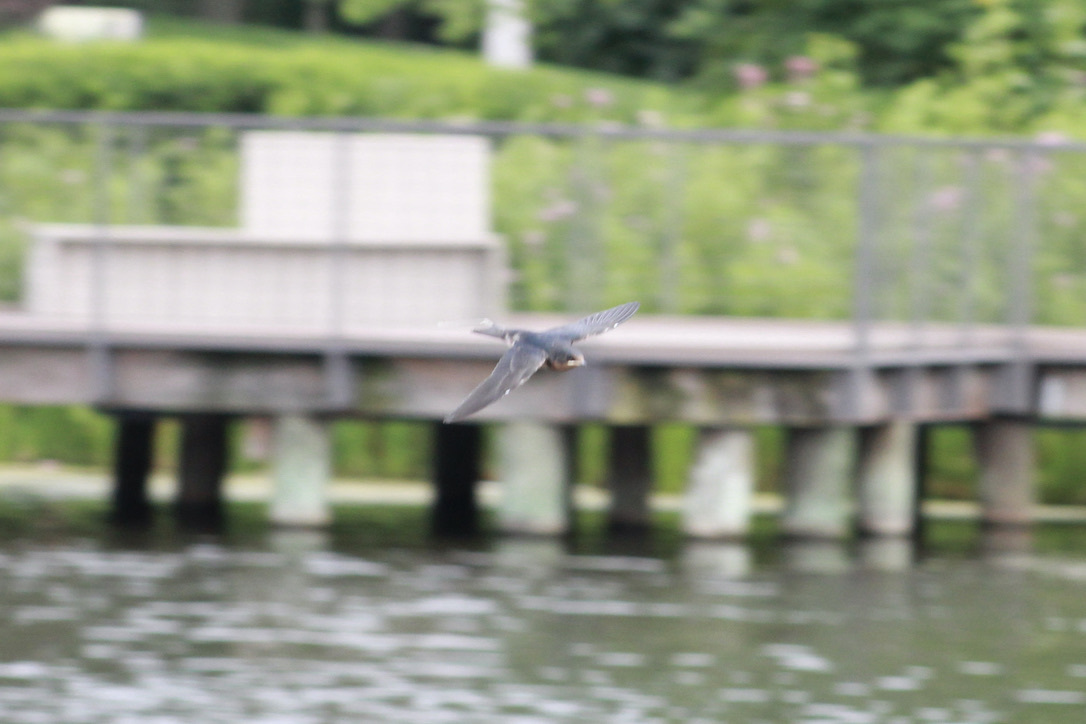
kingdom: Animalia
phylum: Chordata
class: Aves
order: Passeriformes
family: Hirundinidae
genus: Hirundo
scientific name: Hirundo rustica
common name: Barn swallow
